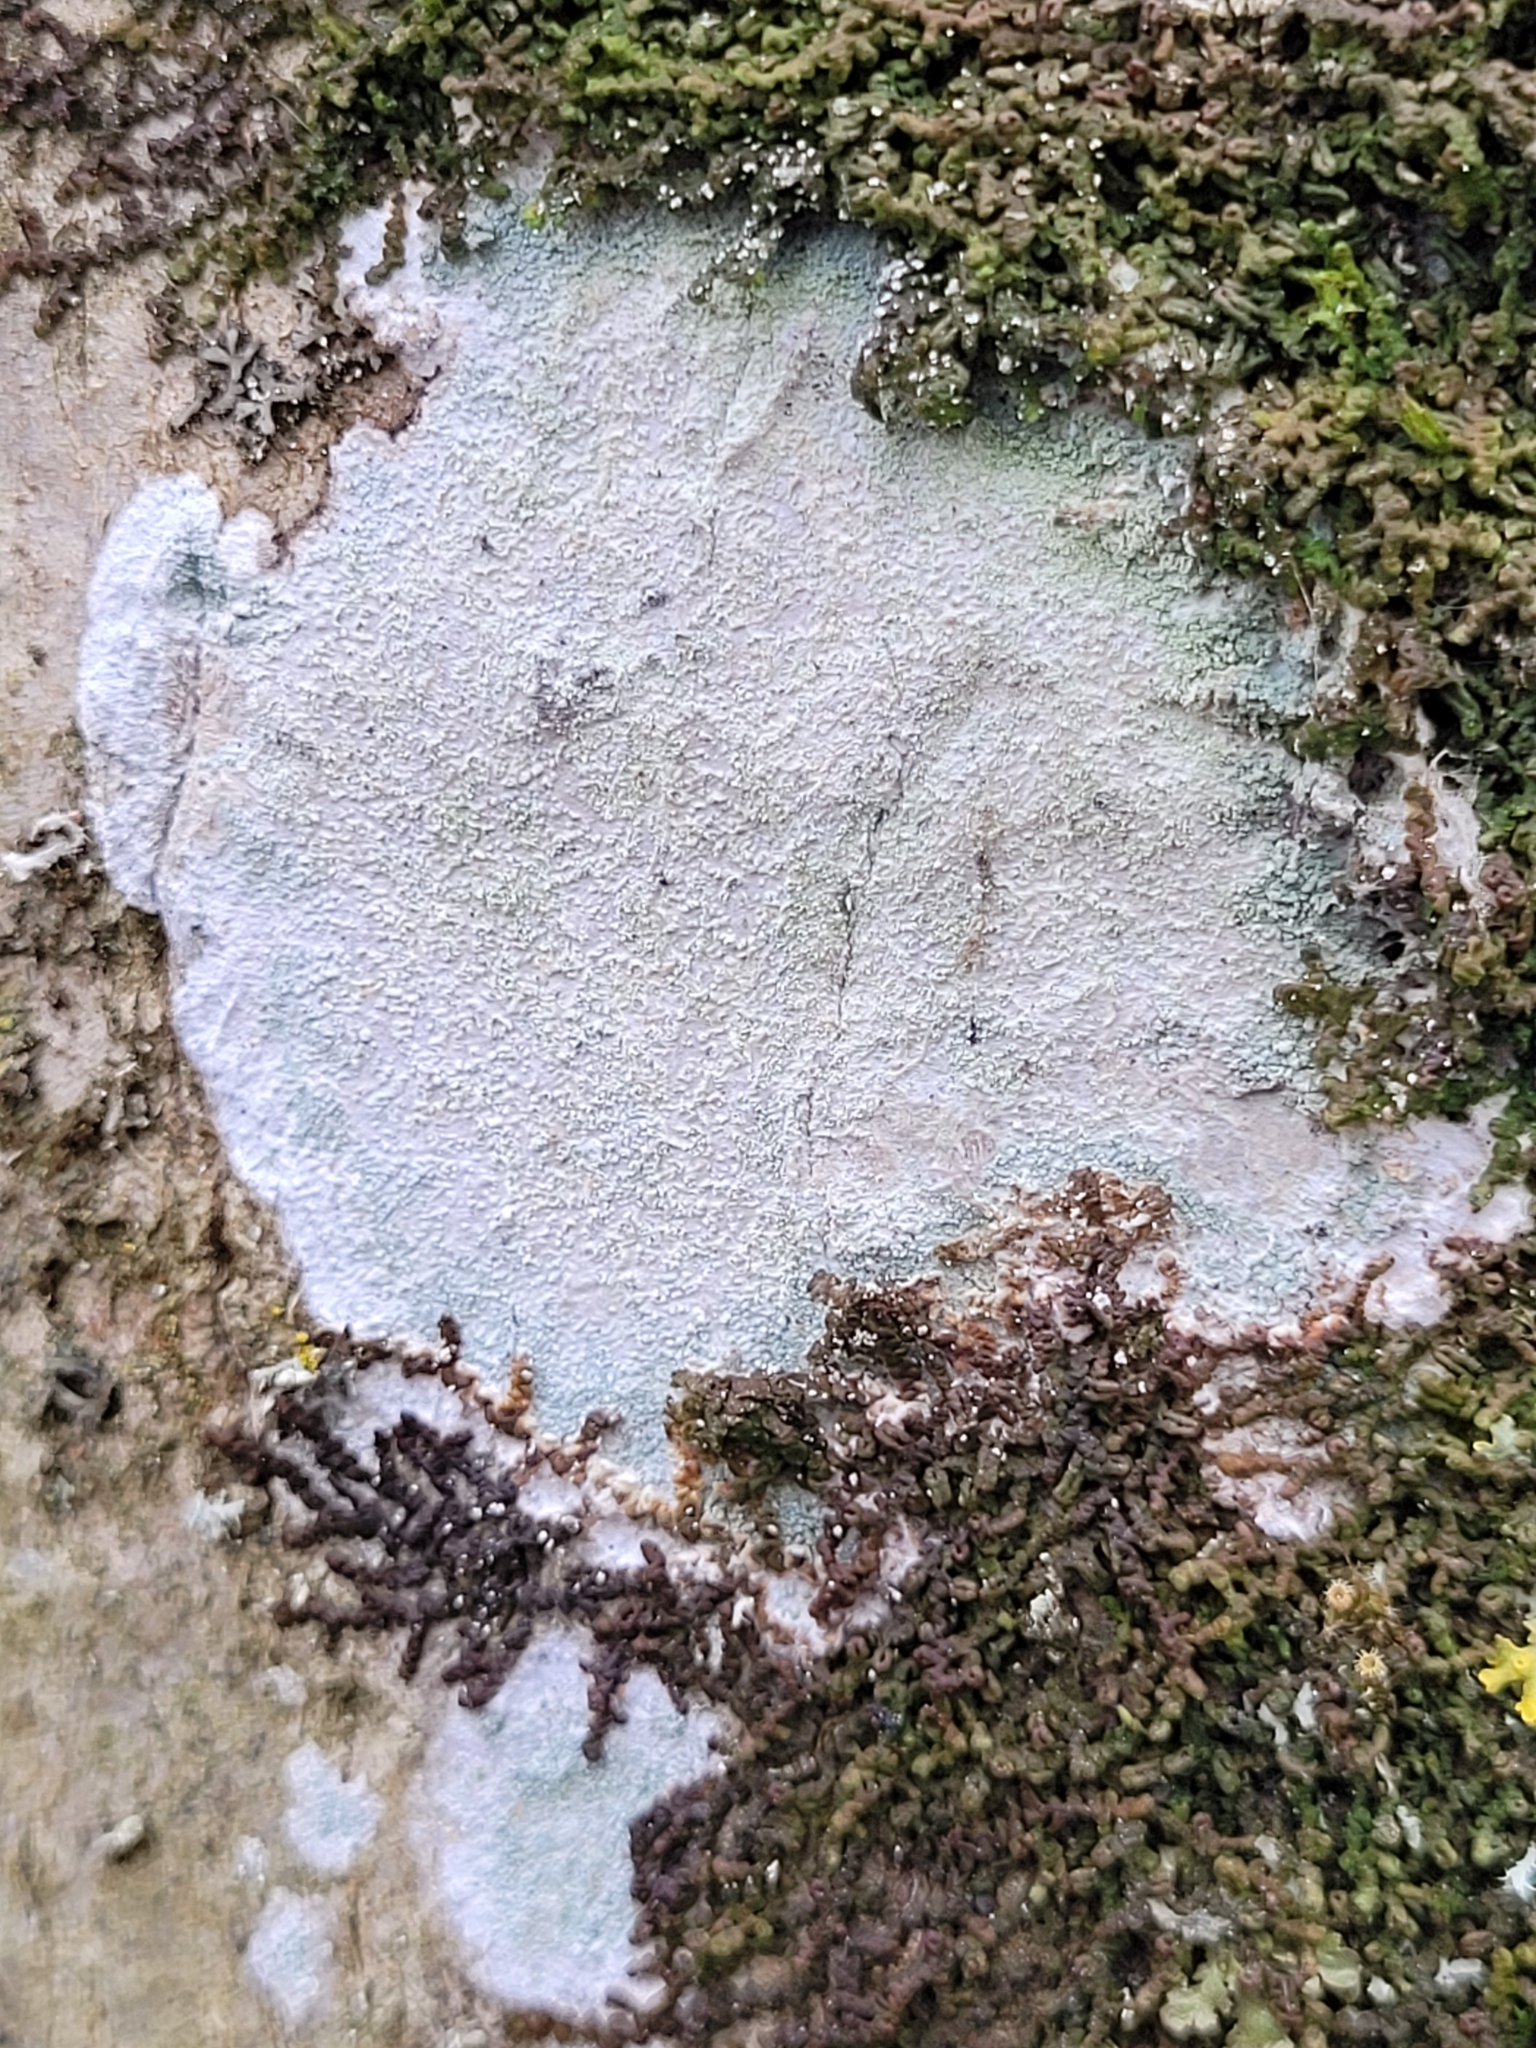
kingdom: Fungi
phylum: Ascomycota
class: Lecanoromycetes
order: Ostropales
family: Phlyctidaceae
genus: Phlyctis
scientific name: Phlyctis argena
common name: Whitewash lichen
